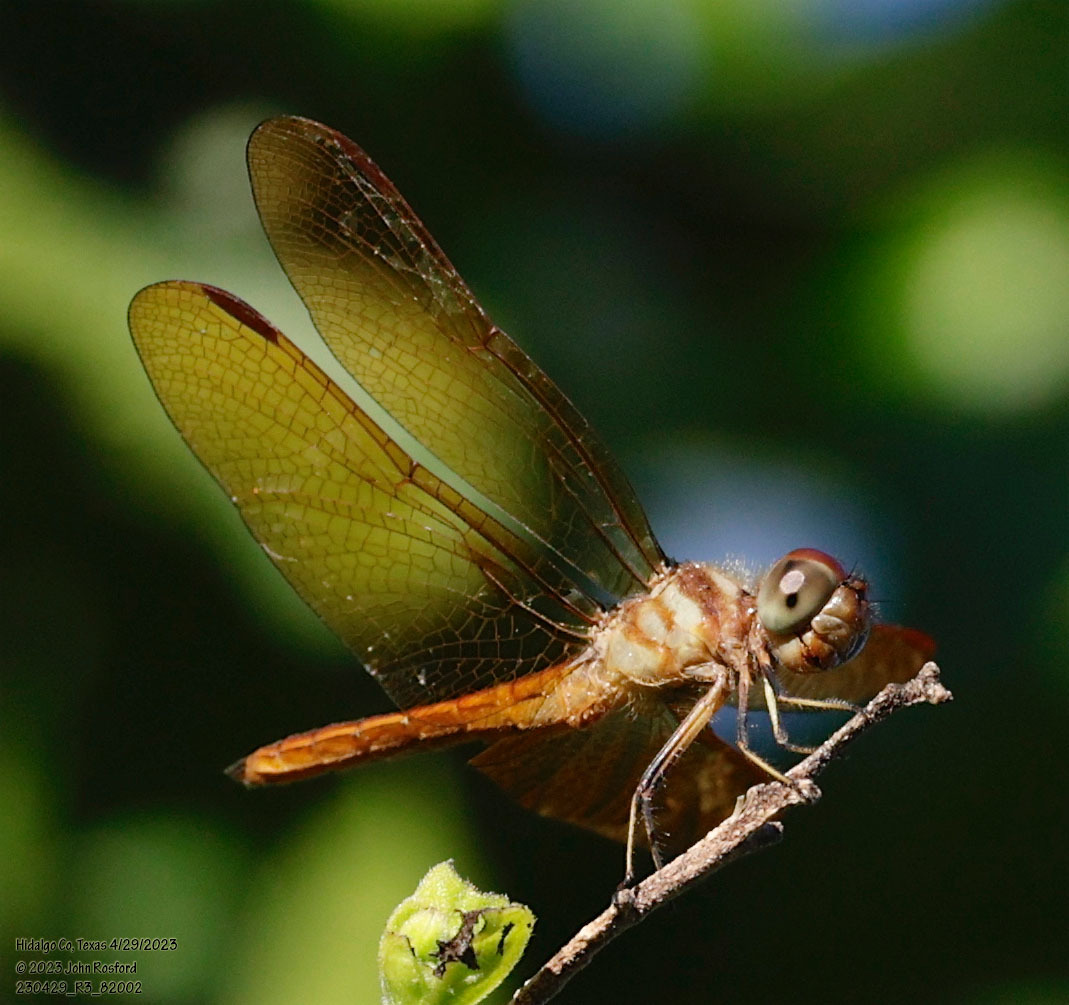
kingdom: Animalia
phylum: Arthropoda
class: Insecta
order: Odonata
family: Libellulidae
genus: Perithemis
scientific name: Perithemis domitia
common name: Slough amberwing
